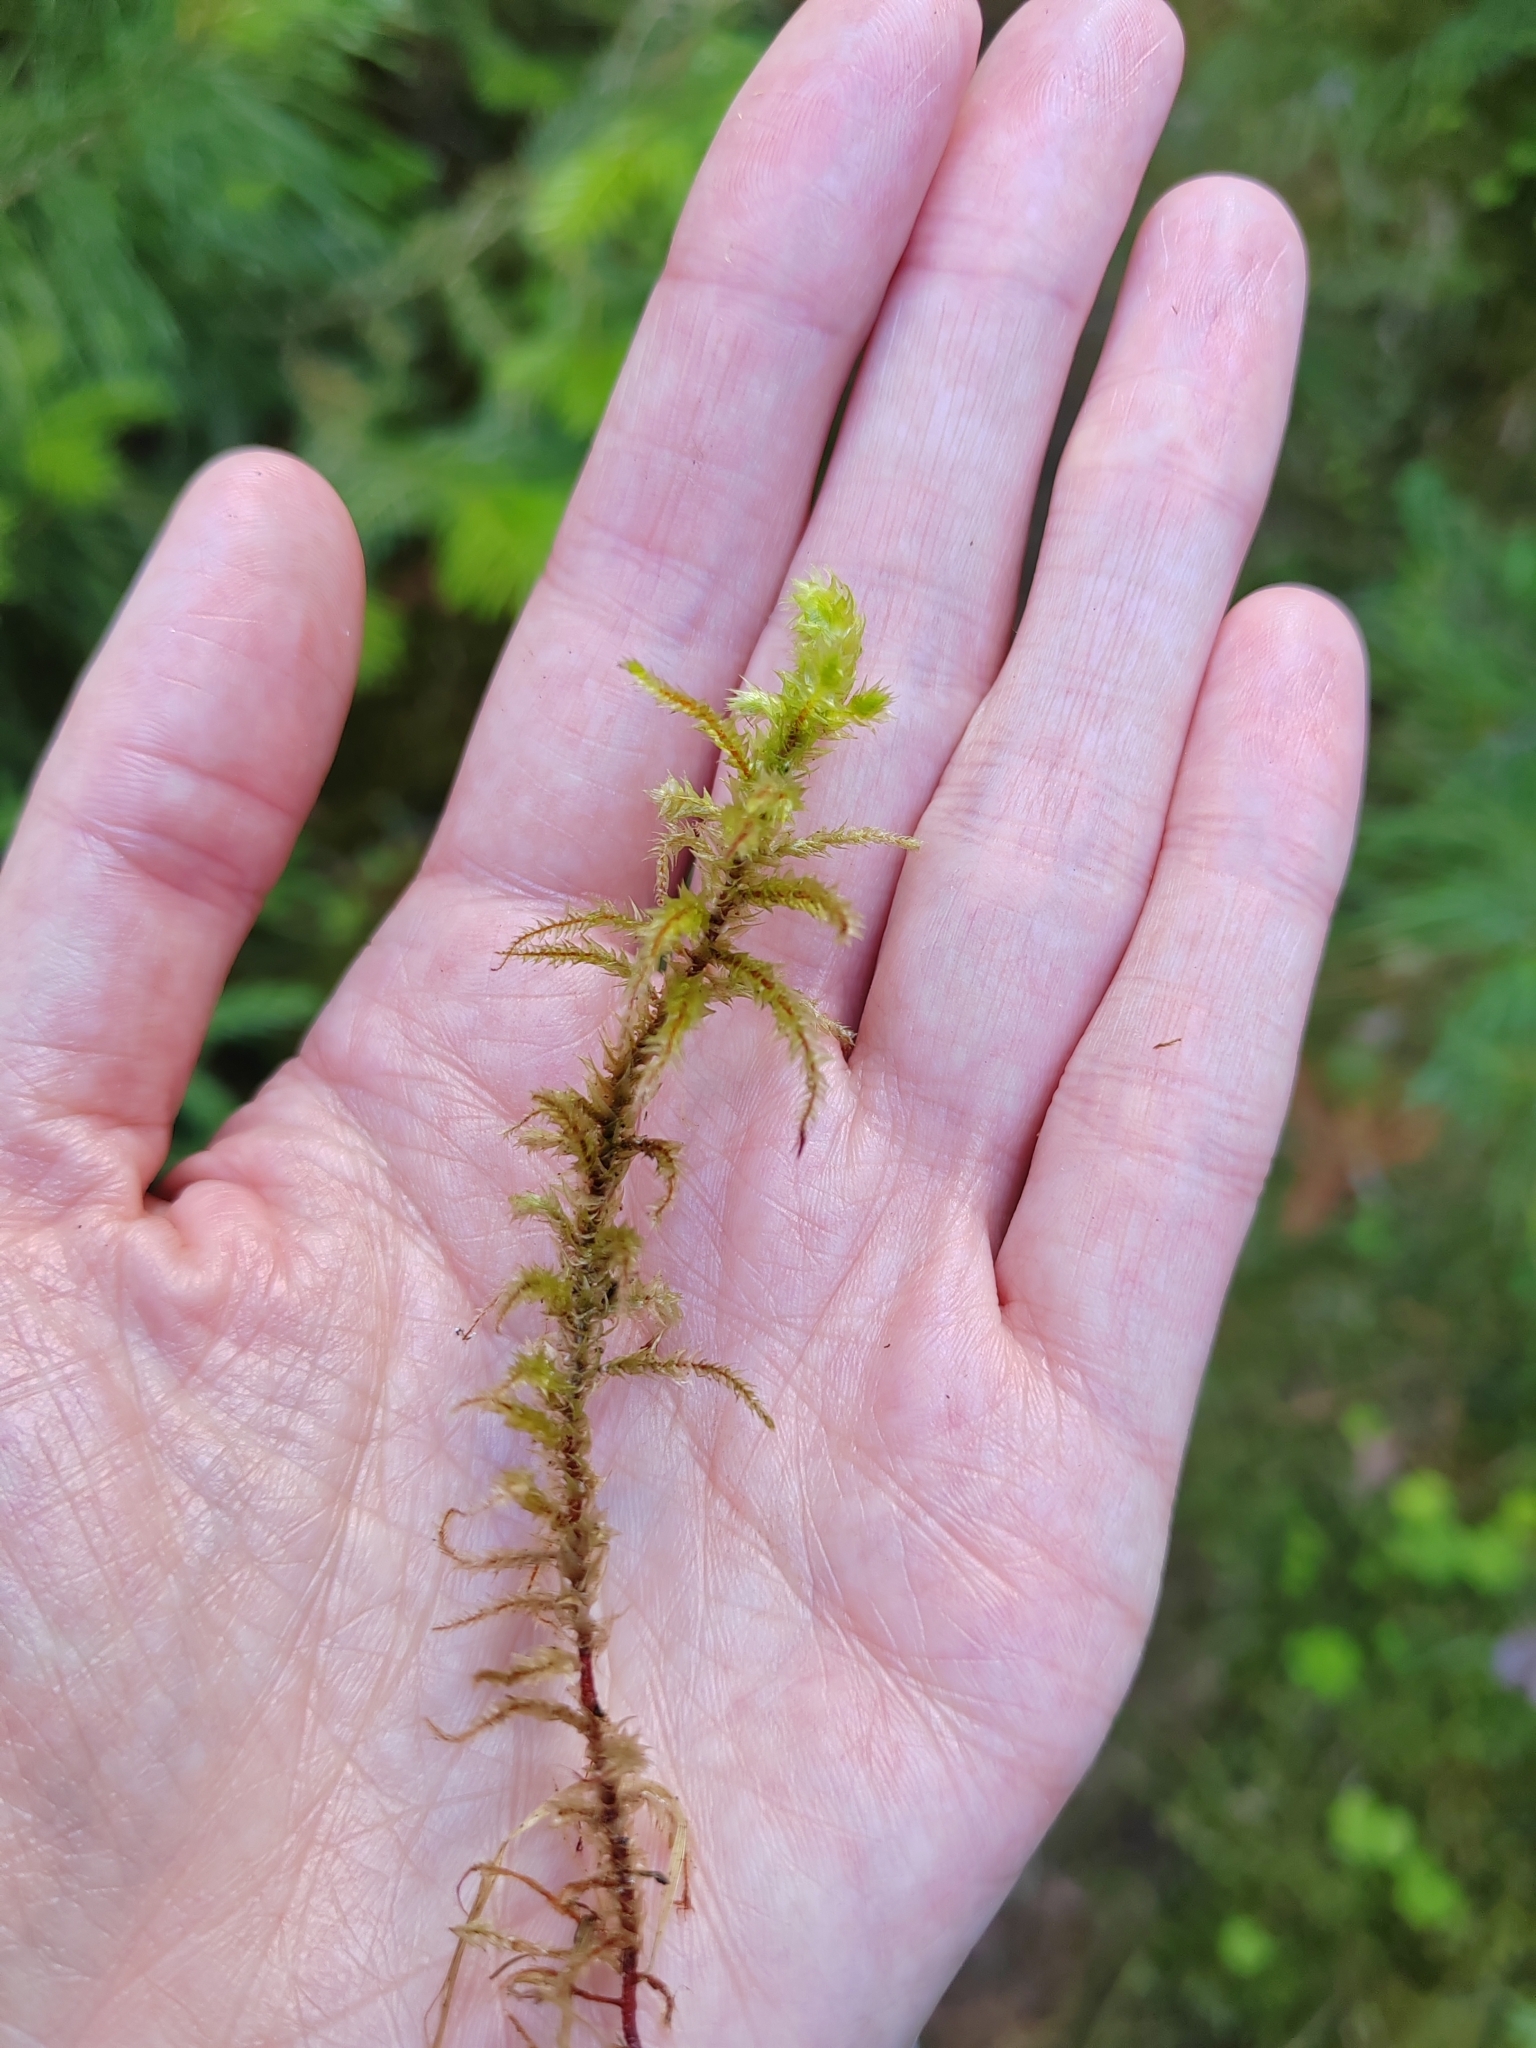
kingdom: Plantae
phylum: Bryophyta
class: Bryopsida
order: Hypnales
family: Hylocomiaceae
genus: Hylocomiadelphus
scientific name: Hylocomiadelphus triquetrus
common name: Rough goose neck moss
